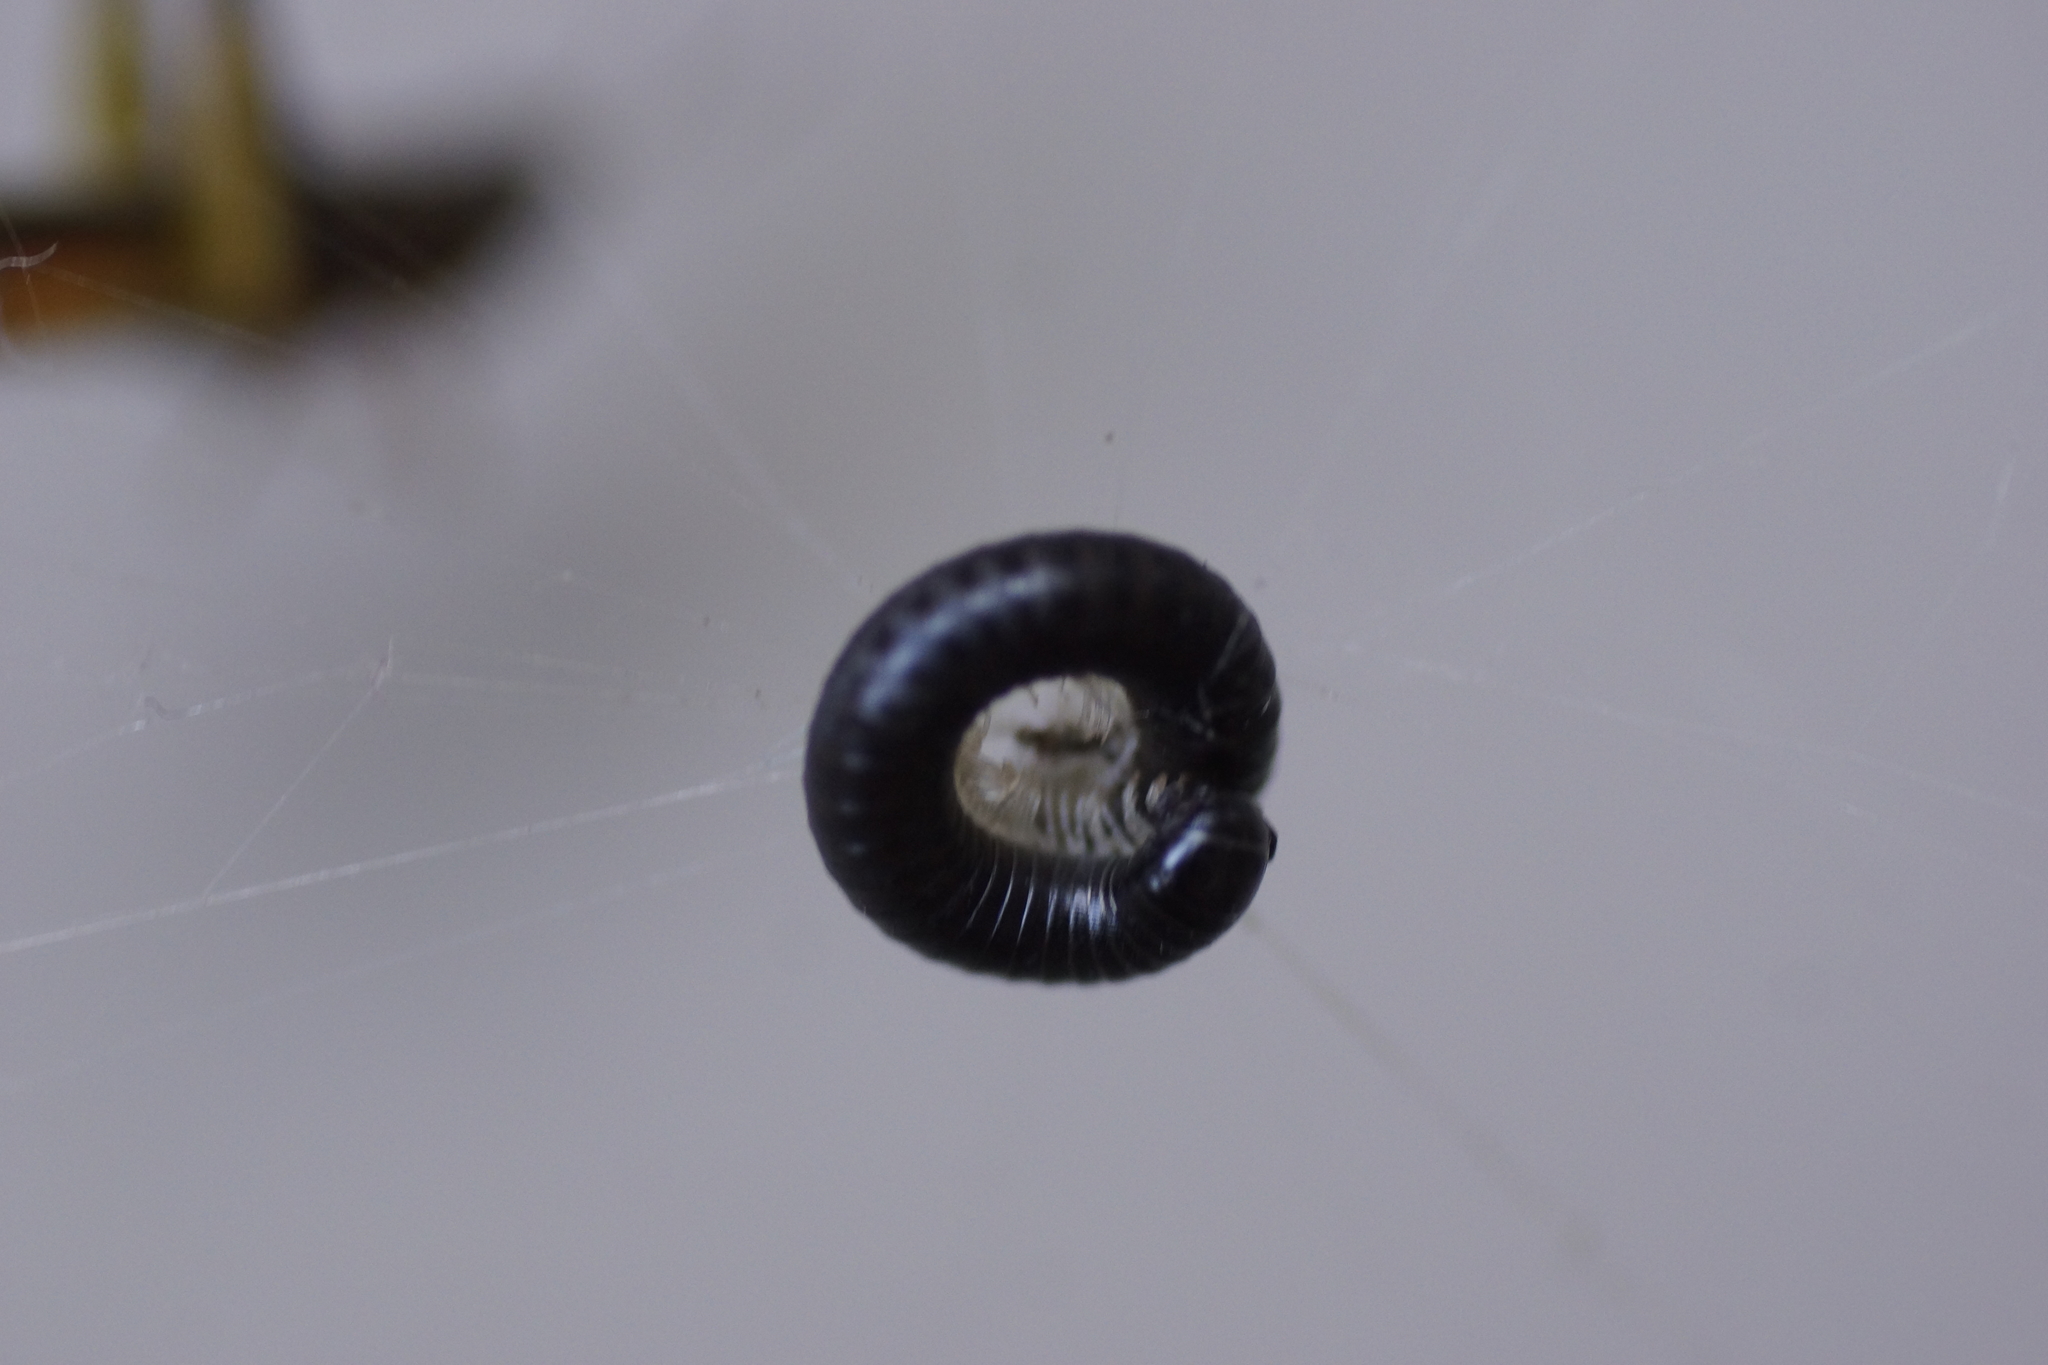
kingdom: Animalia
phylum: Arthropoda
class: Diplopoda
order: Julida
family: Julidae
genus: Ommatoiulus
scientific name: Ommatoiulus moreleti
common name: Portuguese millipede
